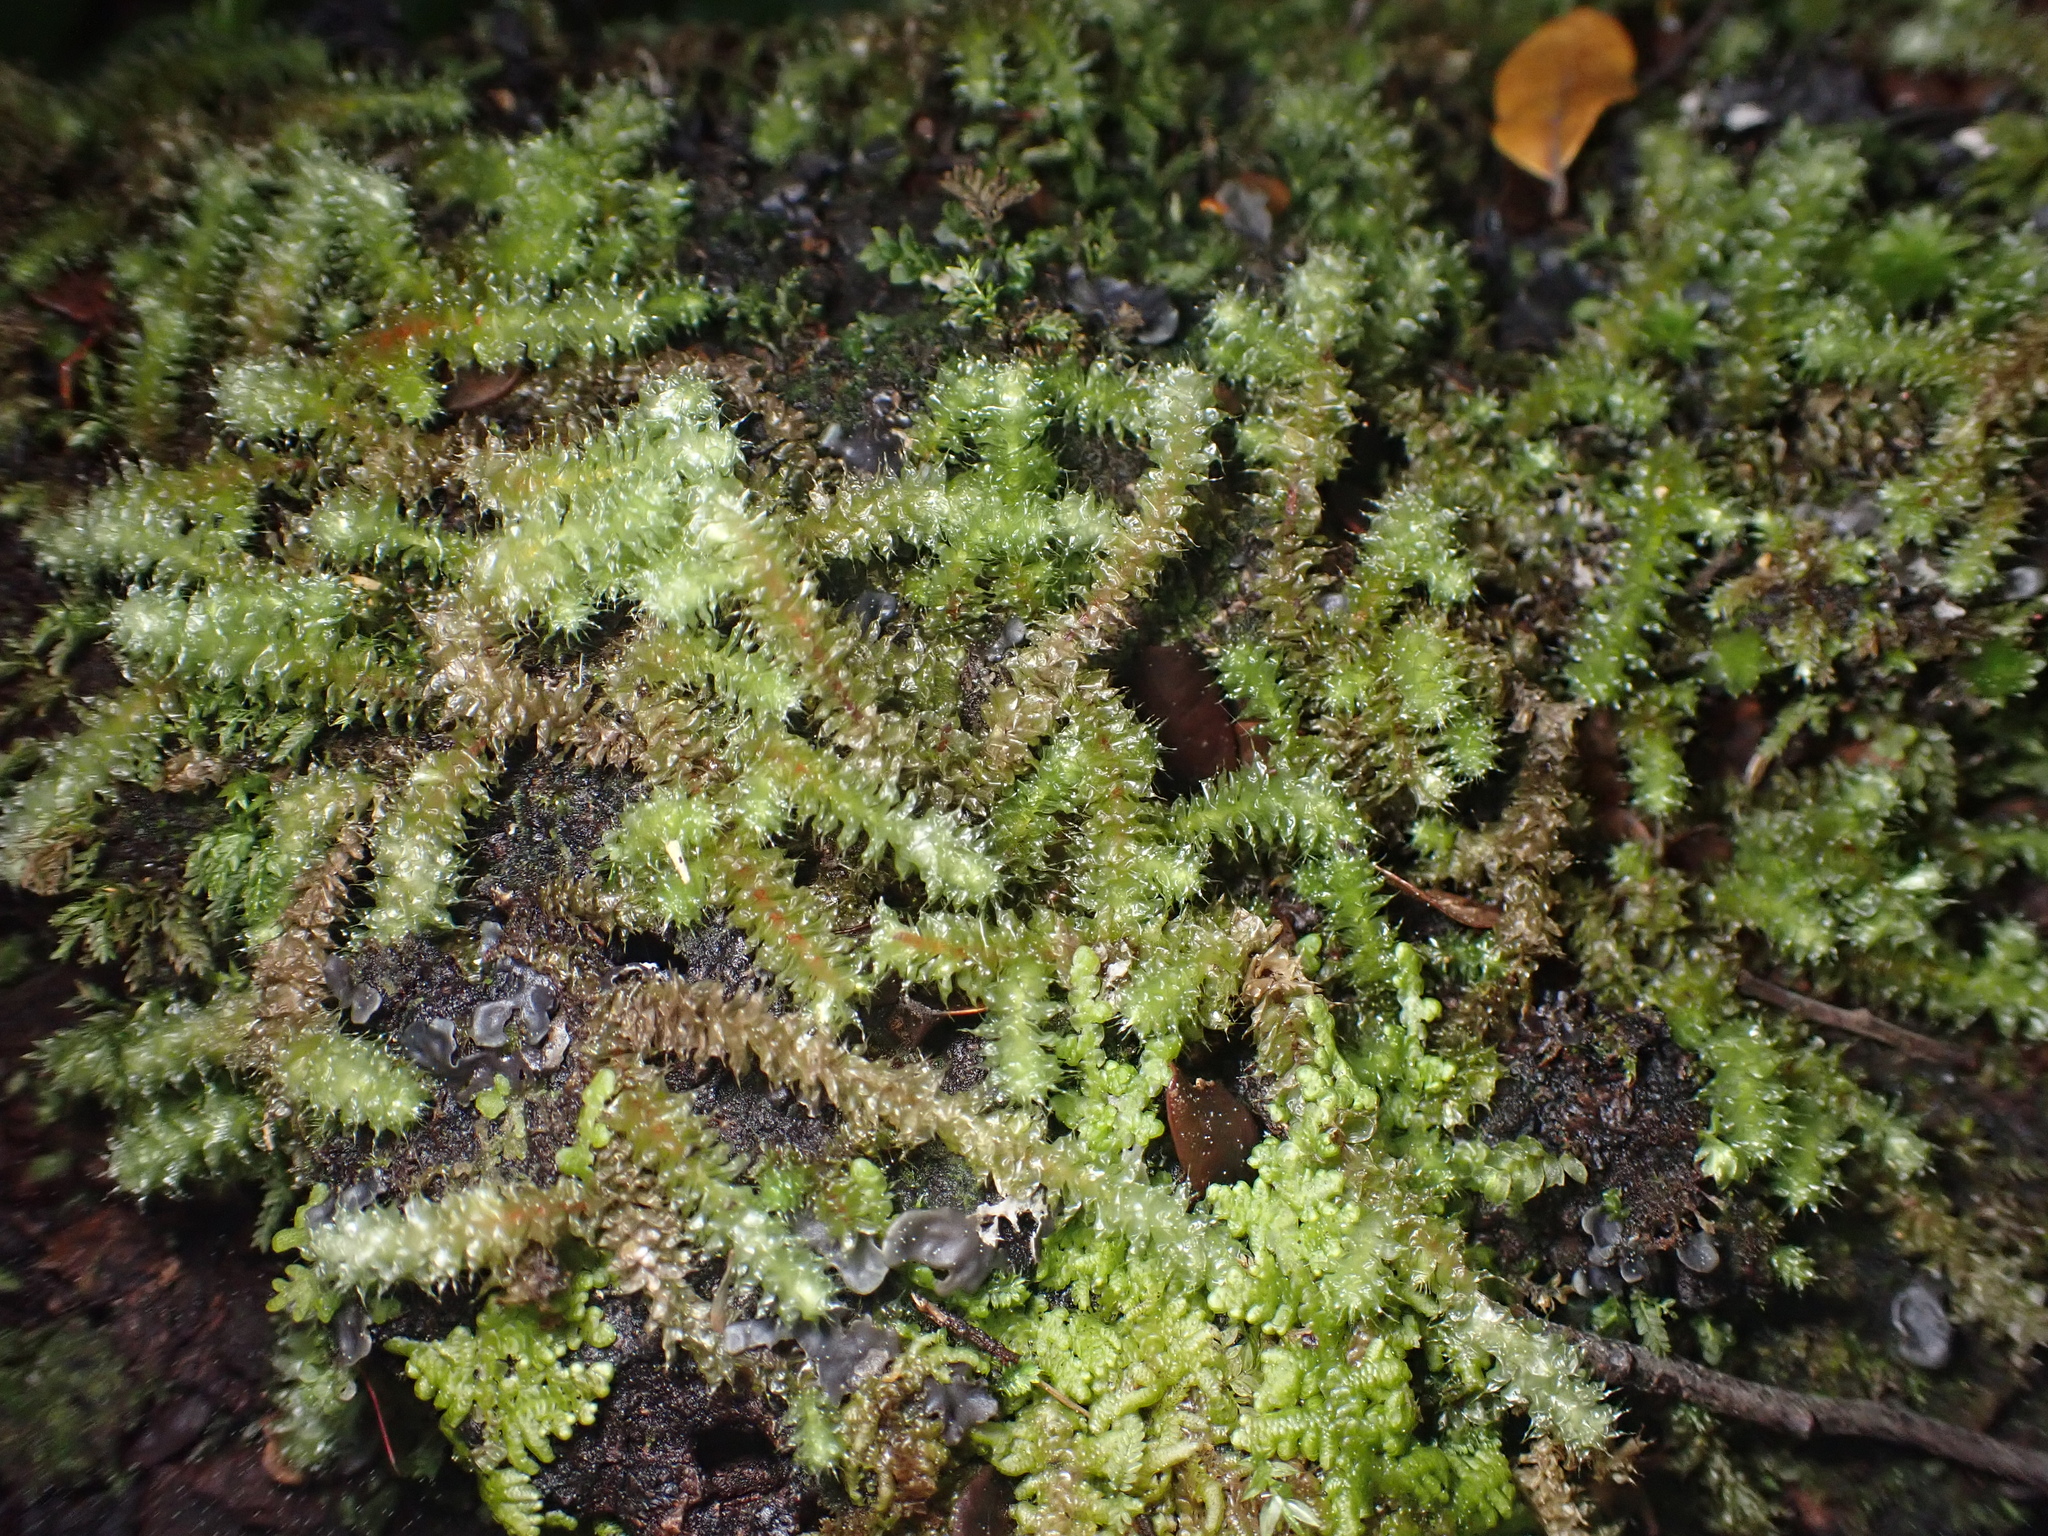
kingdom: Plantae
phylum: Bryophyta
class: Bryopsida
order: Ptychomniales
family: Ptychomniaceae
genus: Ptychomnion
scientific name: Ptychomnion aciculare
